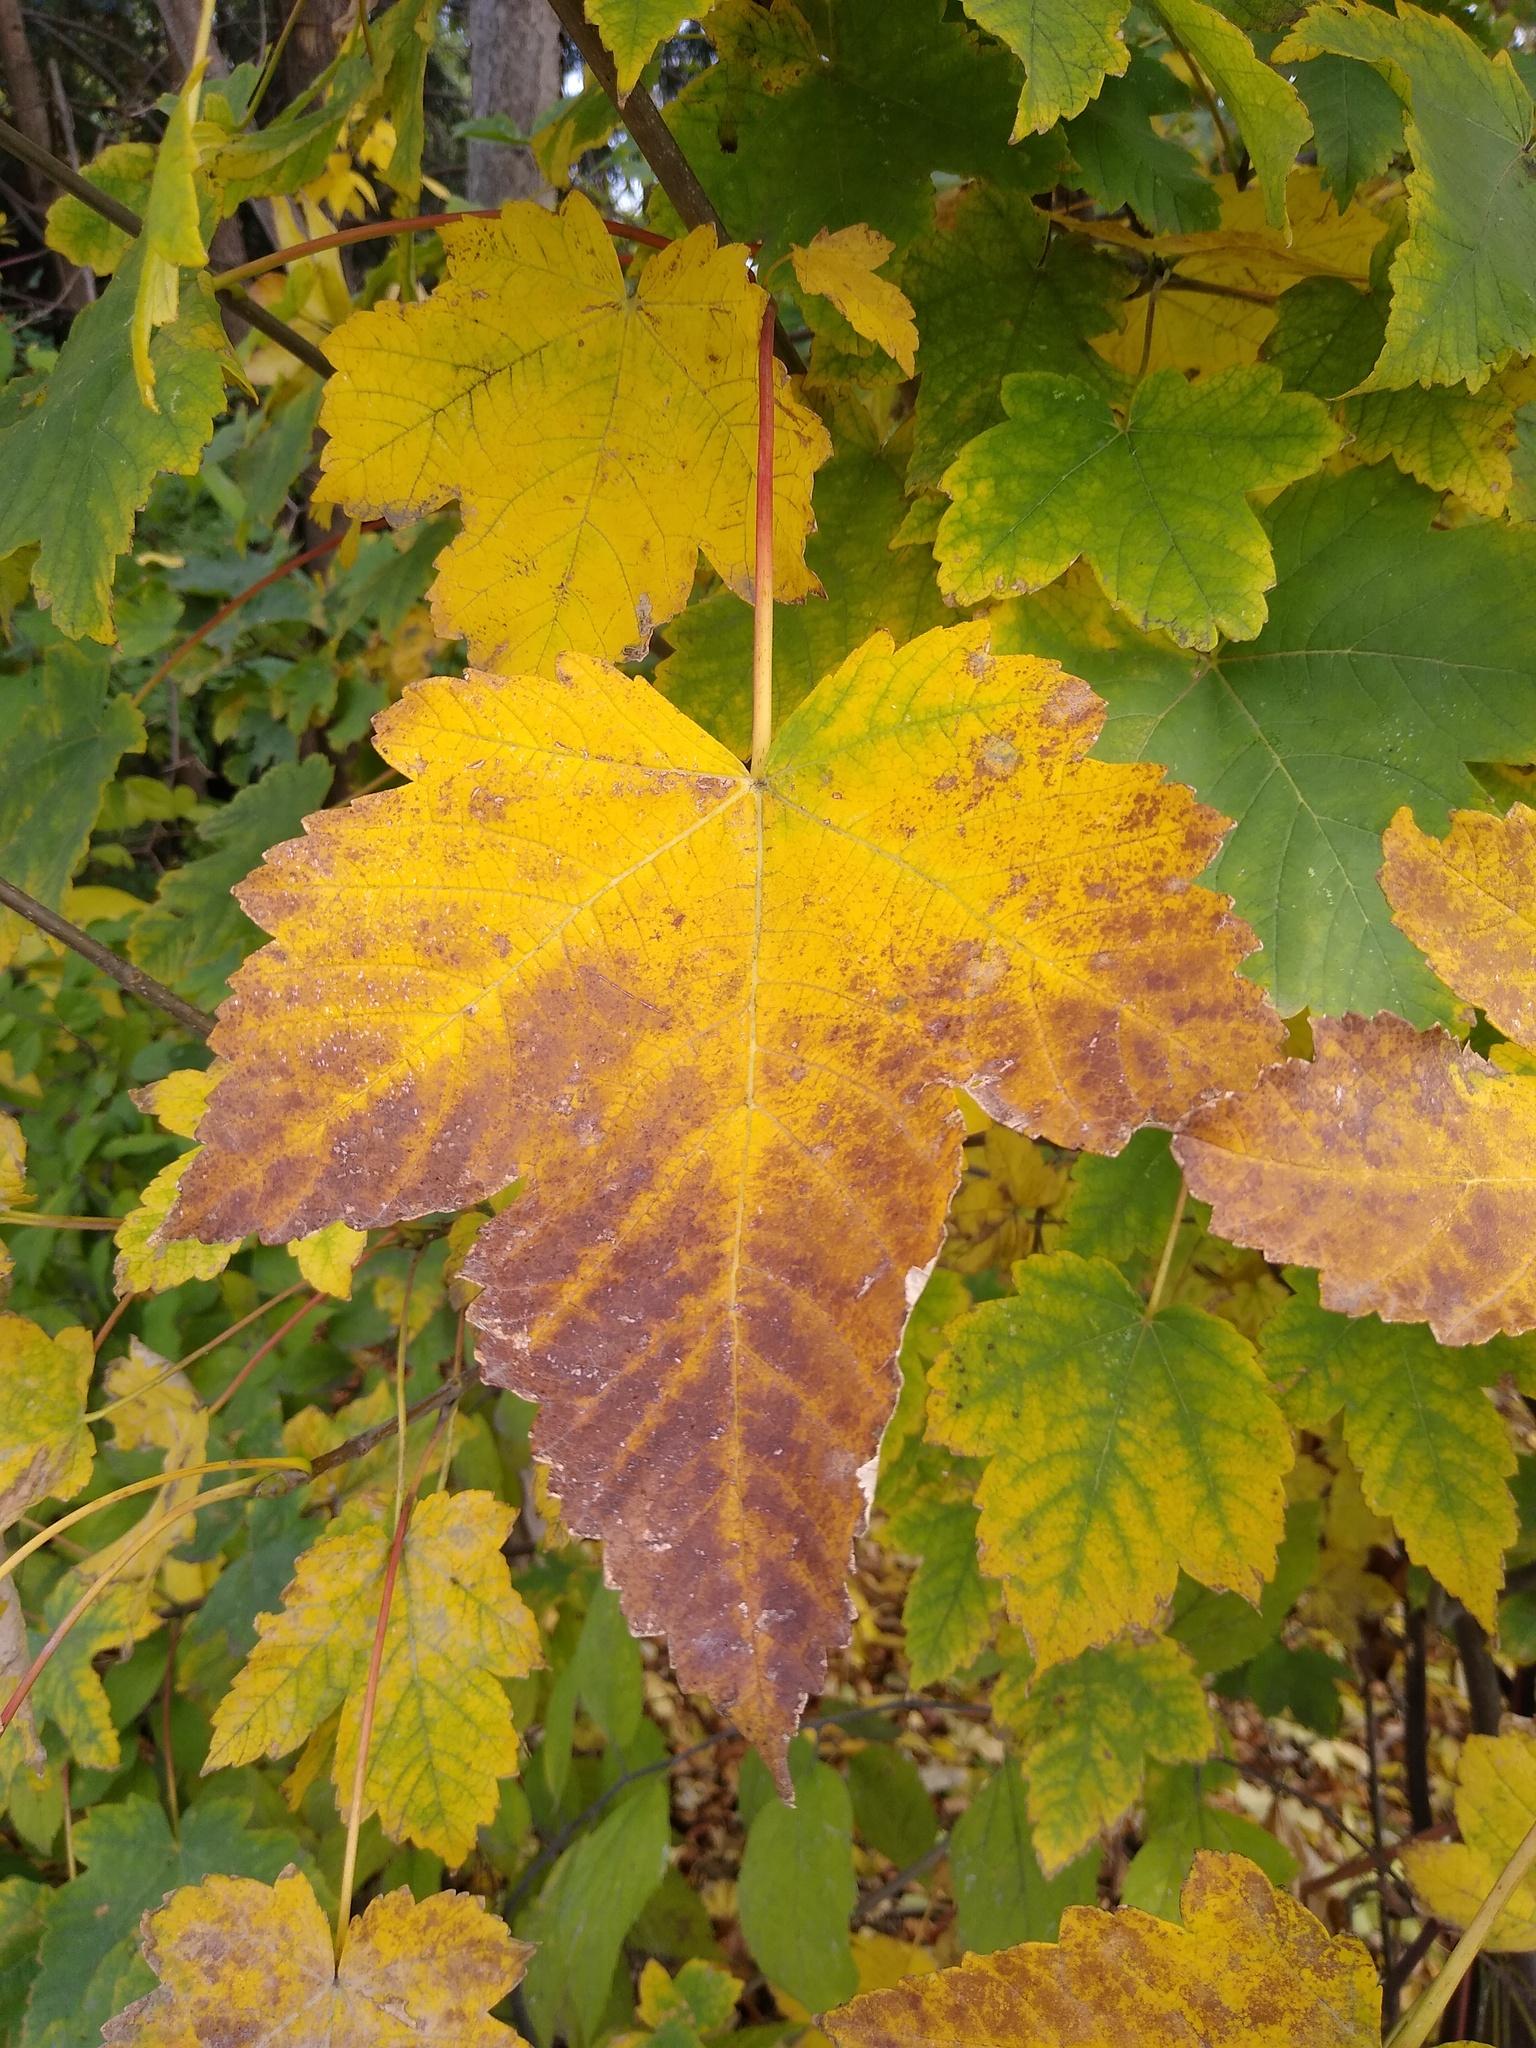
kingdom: Plantae
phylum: Tracheophyta
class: Magnoliopsida
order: Sapindales
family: Sapindaceae
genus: Acer
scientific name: Acer pseudoplatanus
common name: Sycamore
